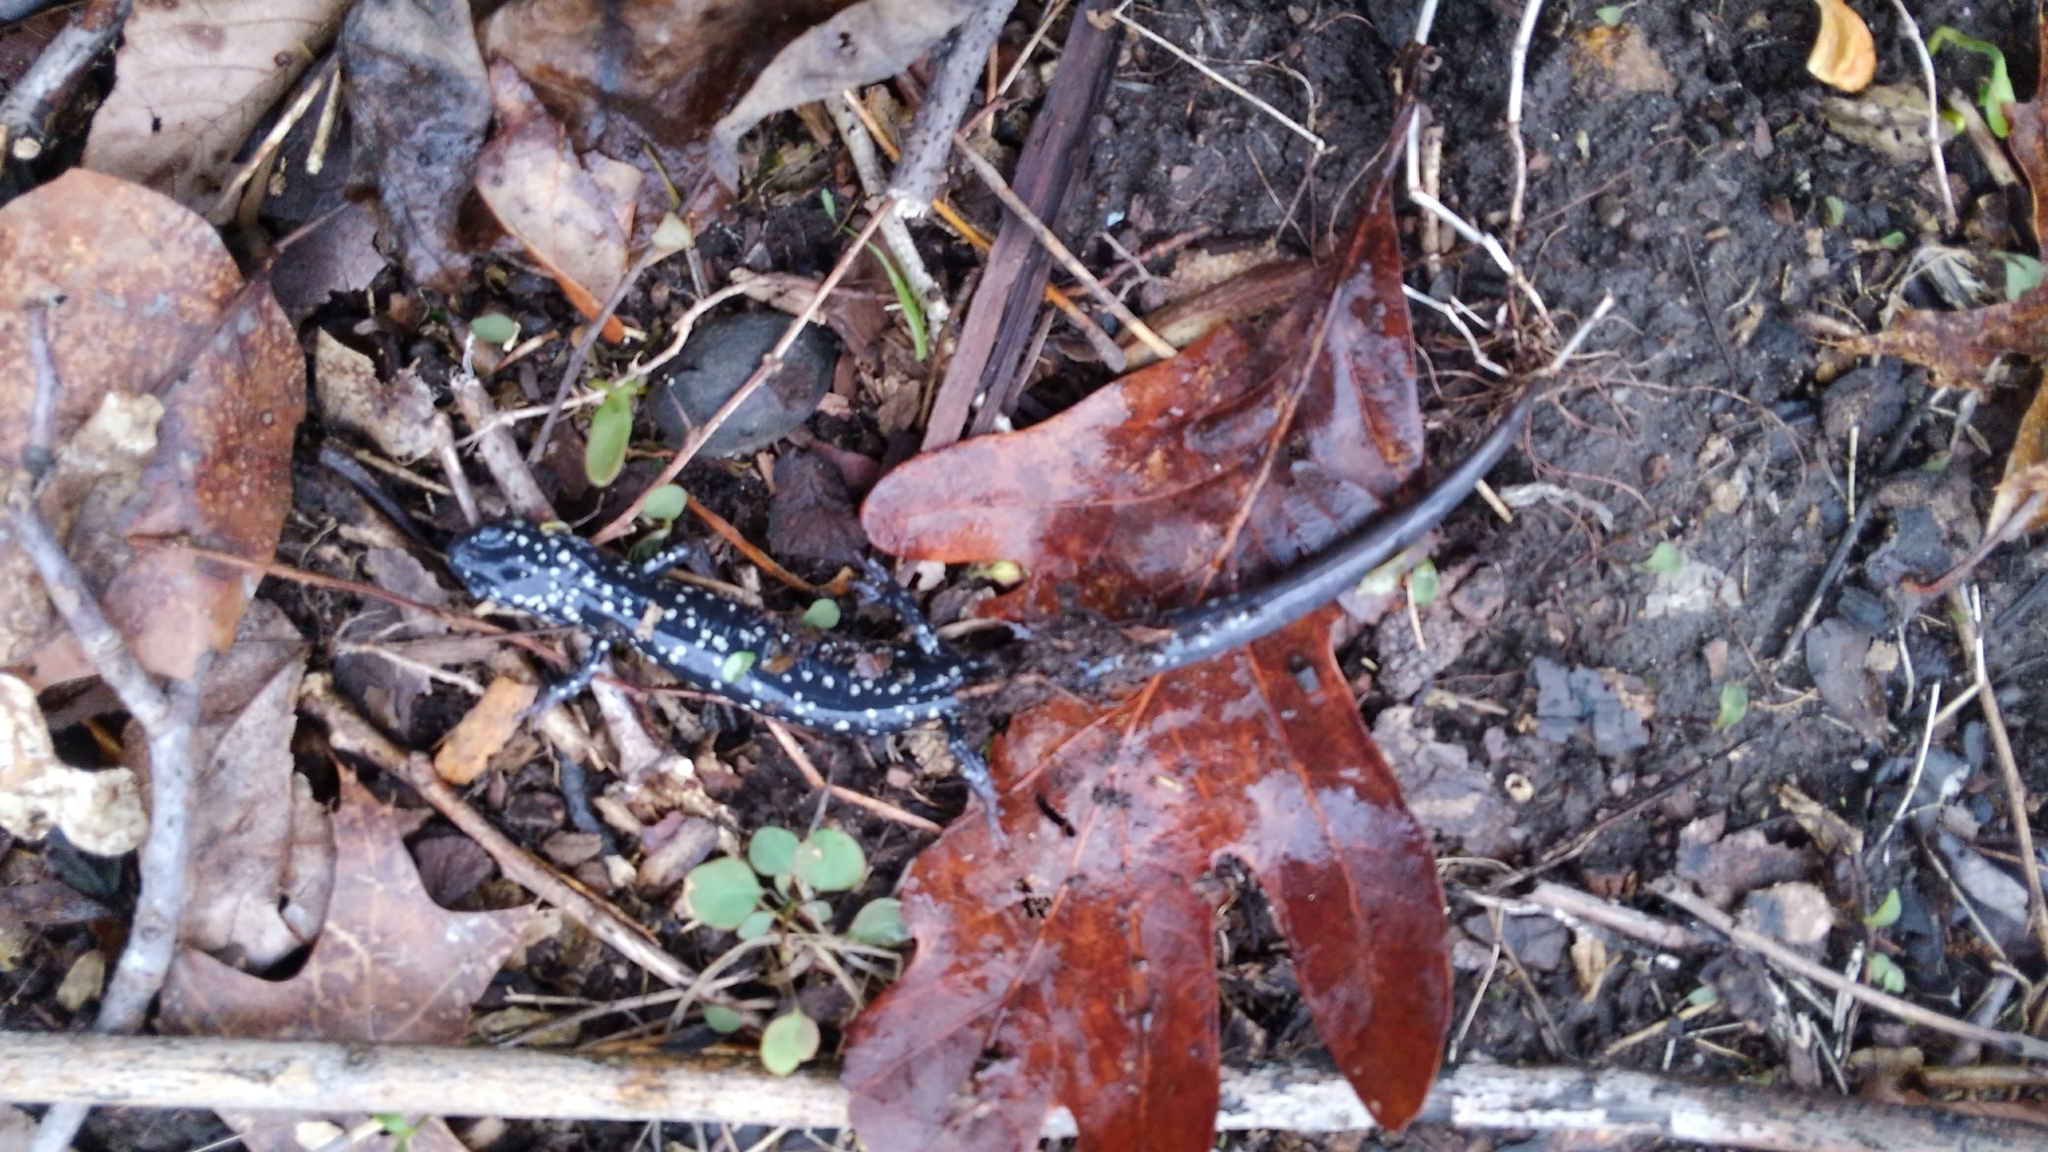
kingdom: Animalia
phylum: Chordata
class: Amphibia
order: Caudata
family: Plethodontidae
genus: Plethodon
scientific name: Plethodon glutinosus
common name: Northern slimy salamander
